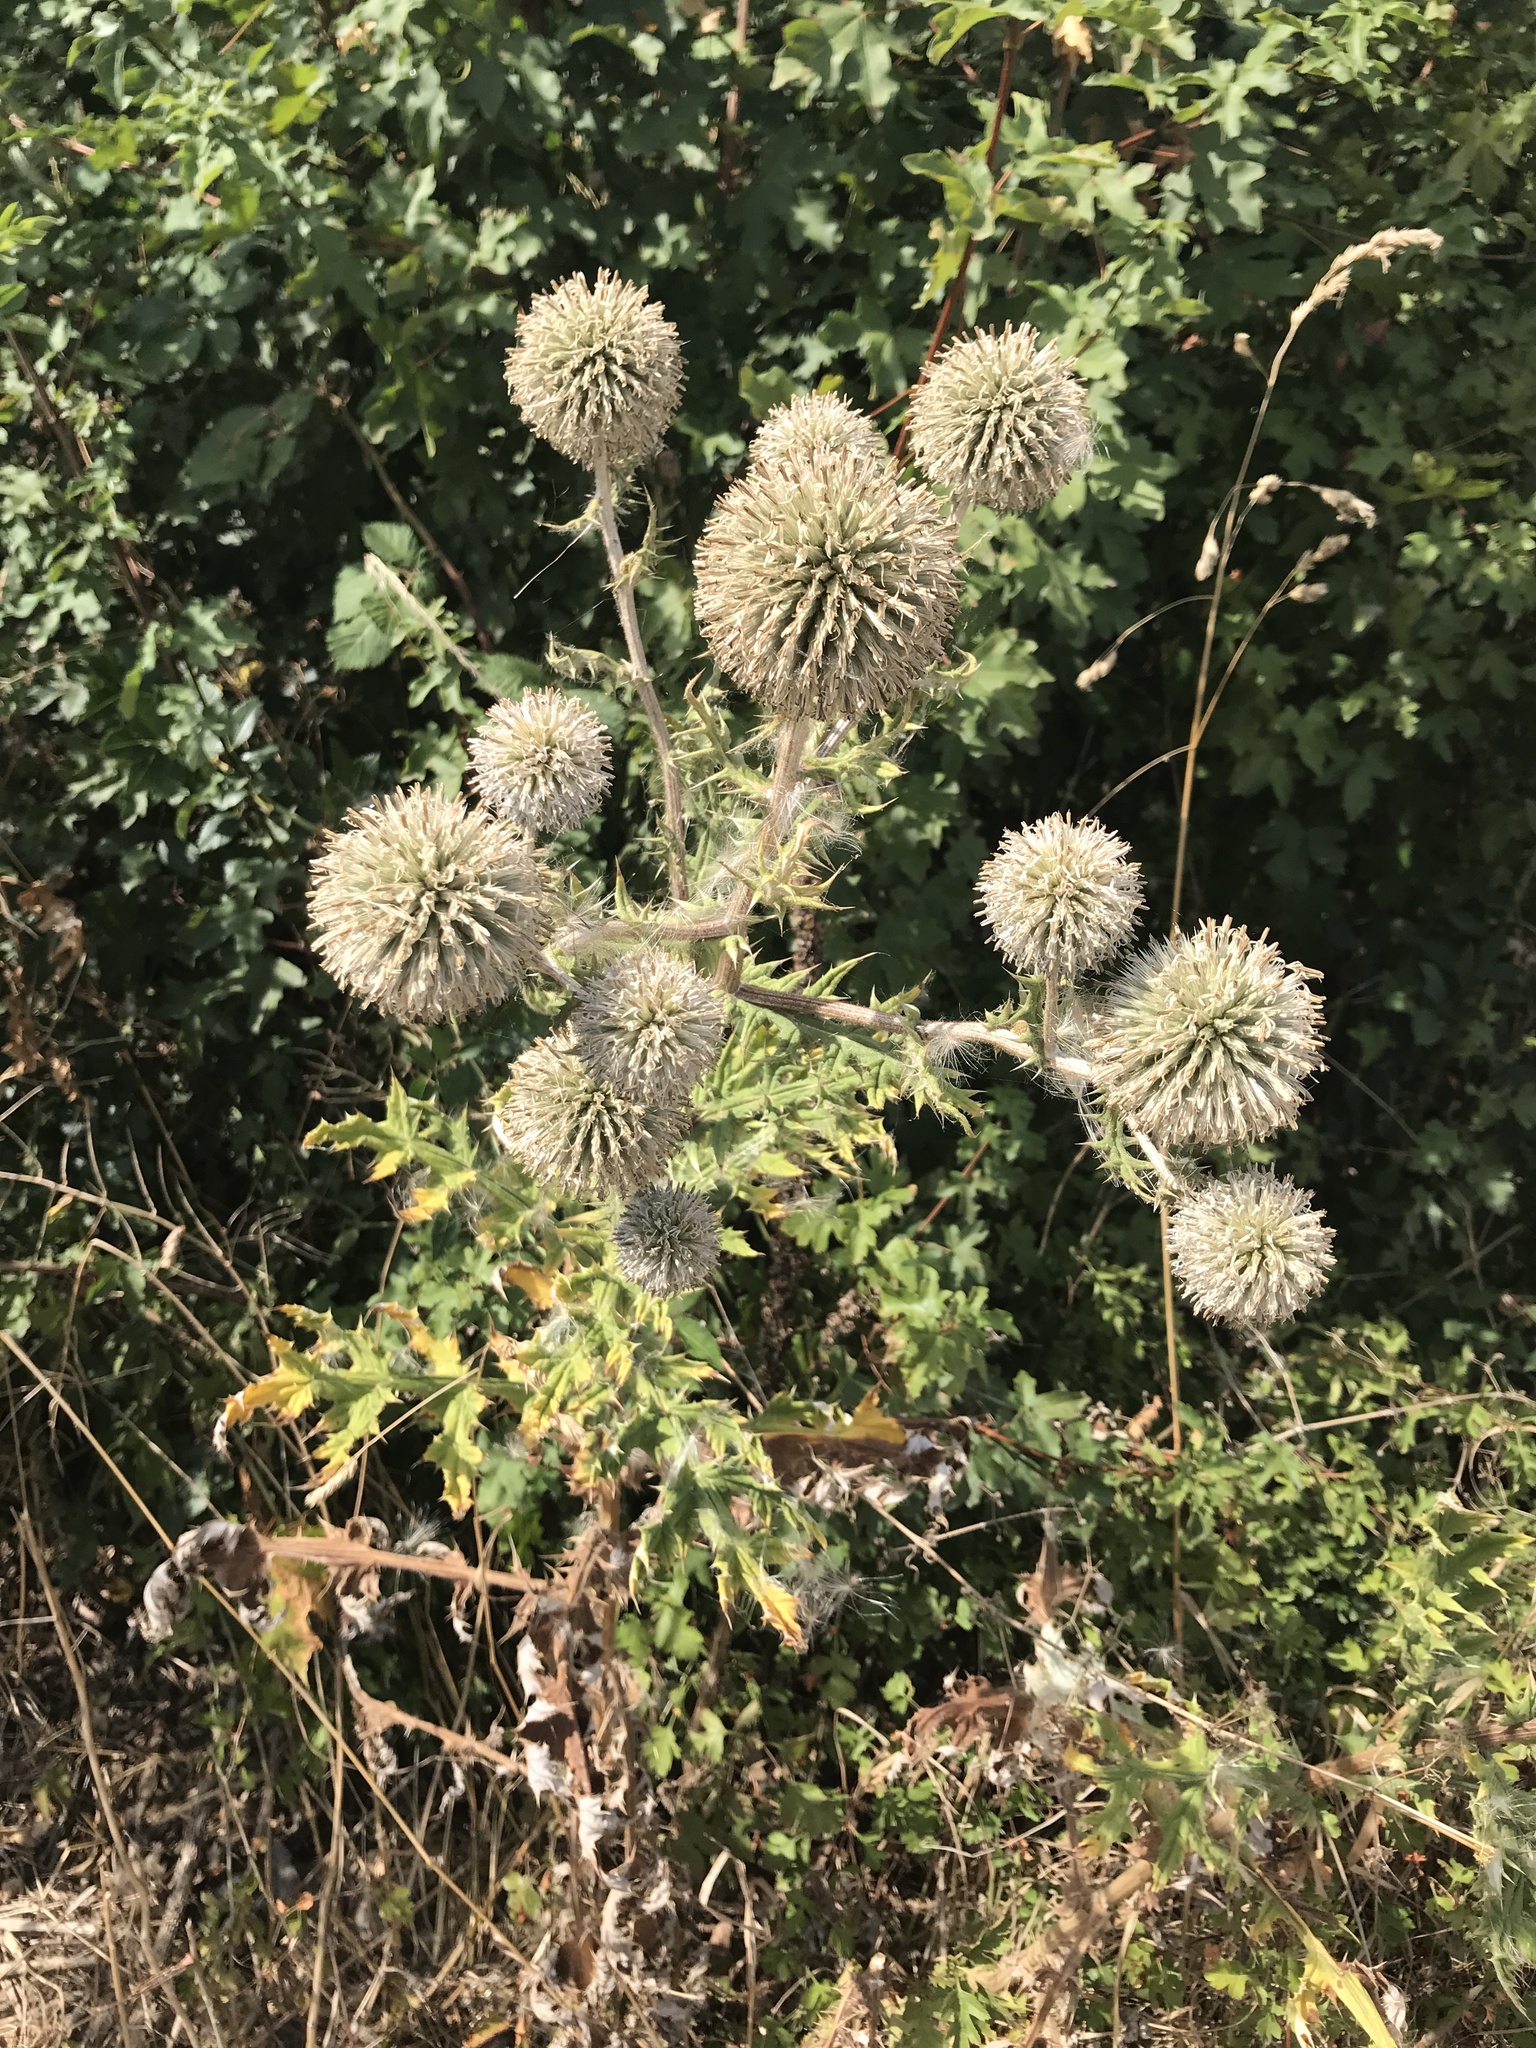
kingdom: Plantae
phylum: Tracheophyta
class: Magnoliopsida
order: Asterales
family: Asteraceae
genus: Echinops
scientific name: Echinops sphaerocephalus
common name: Glandular globe-thistle
